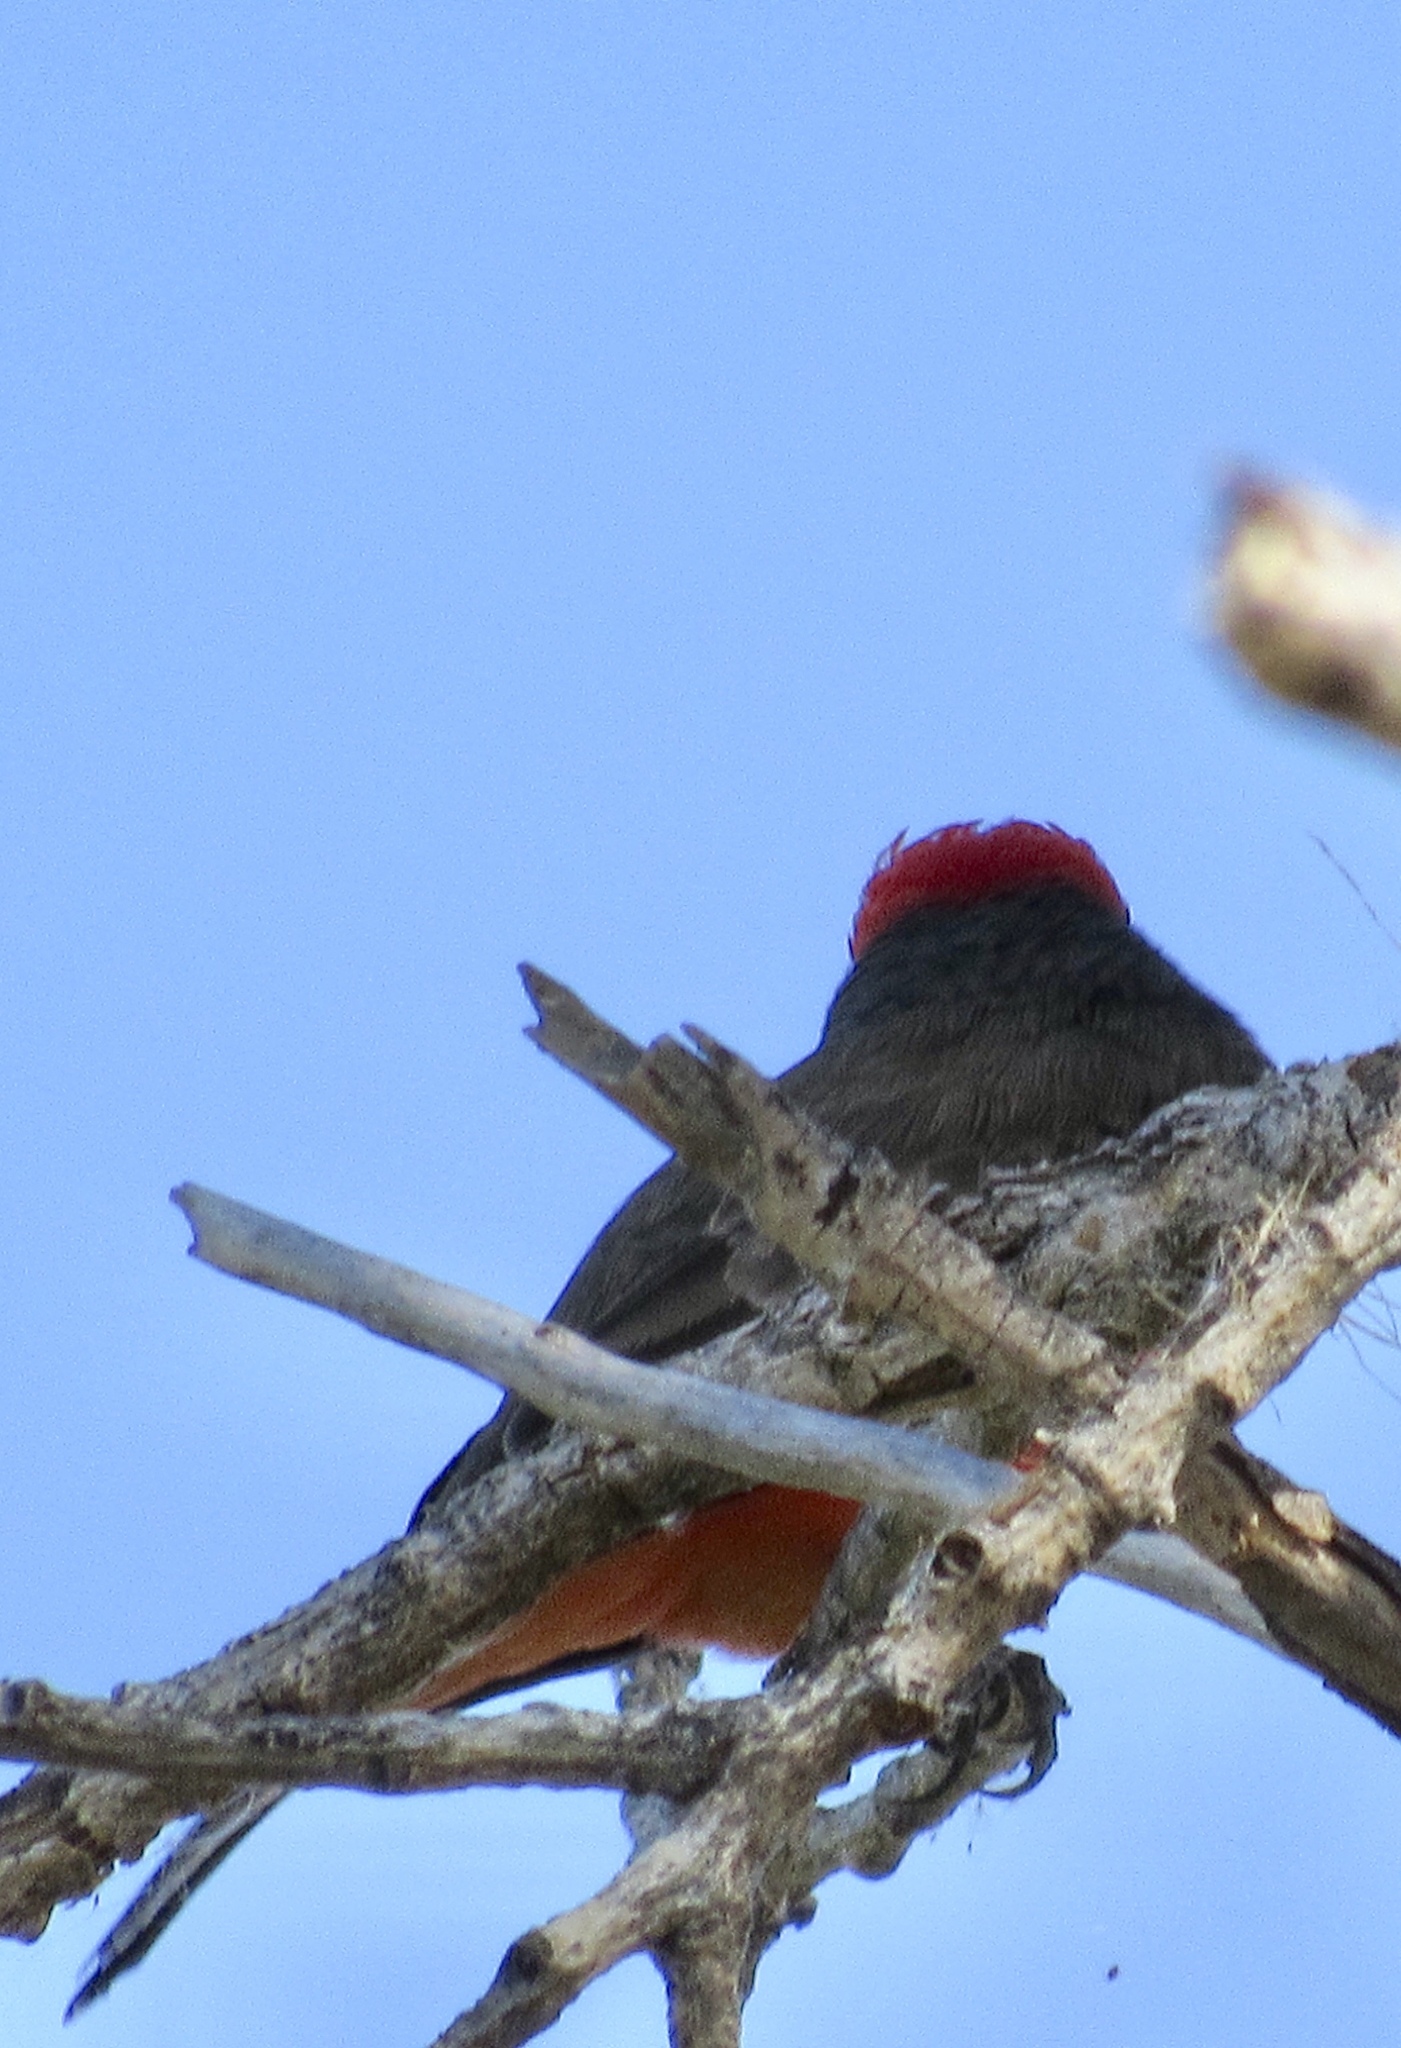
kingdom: Animalia
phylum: Chordata
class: Aves
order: Passeriformes
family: Tyrannidae
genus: Pyrocephalus
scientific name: Pyrocephalus rubinus
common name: Vermilion flycatcher
